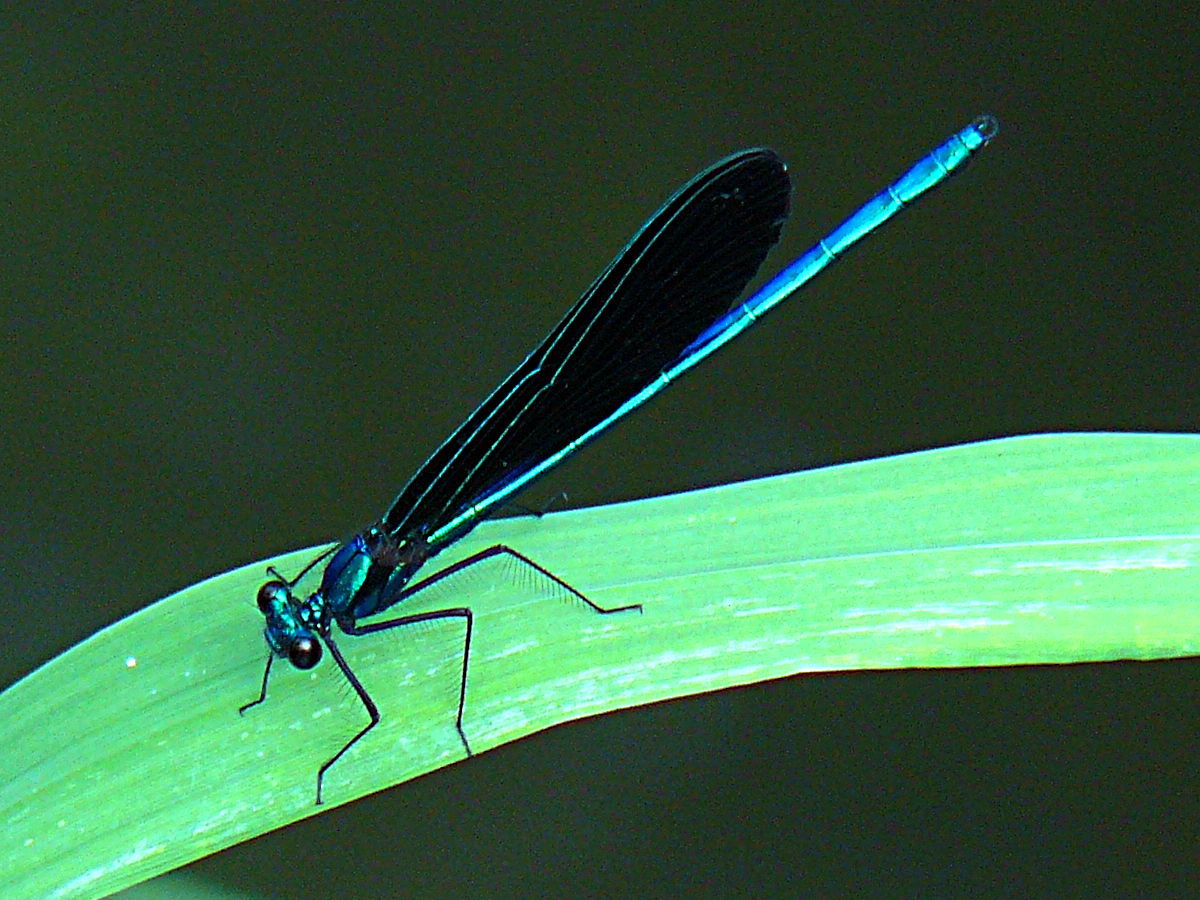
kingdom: Animalia
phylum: Arthropoda
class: Insecta
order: Odonata
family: Calopterygidae
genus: Calopteryx
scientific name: Calopteryx maculata
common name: Ebony jewelwing
